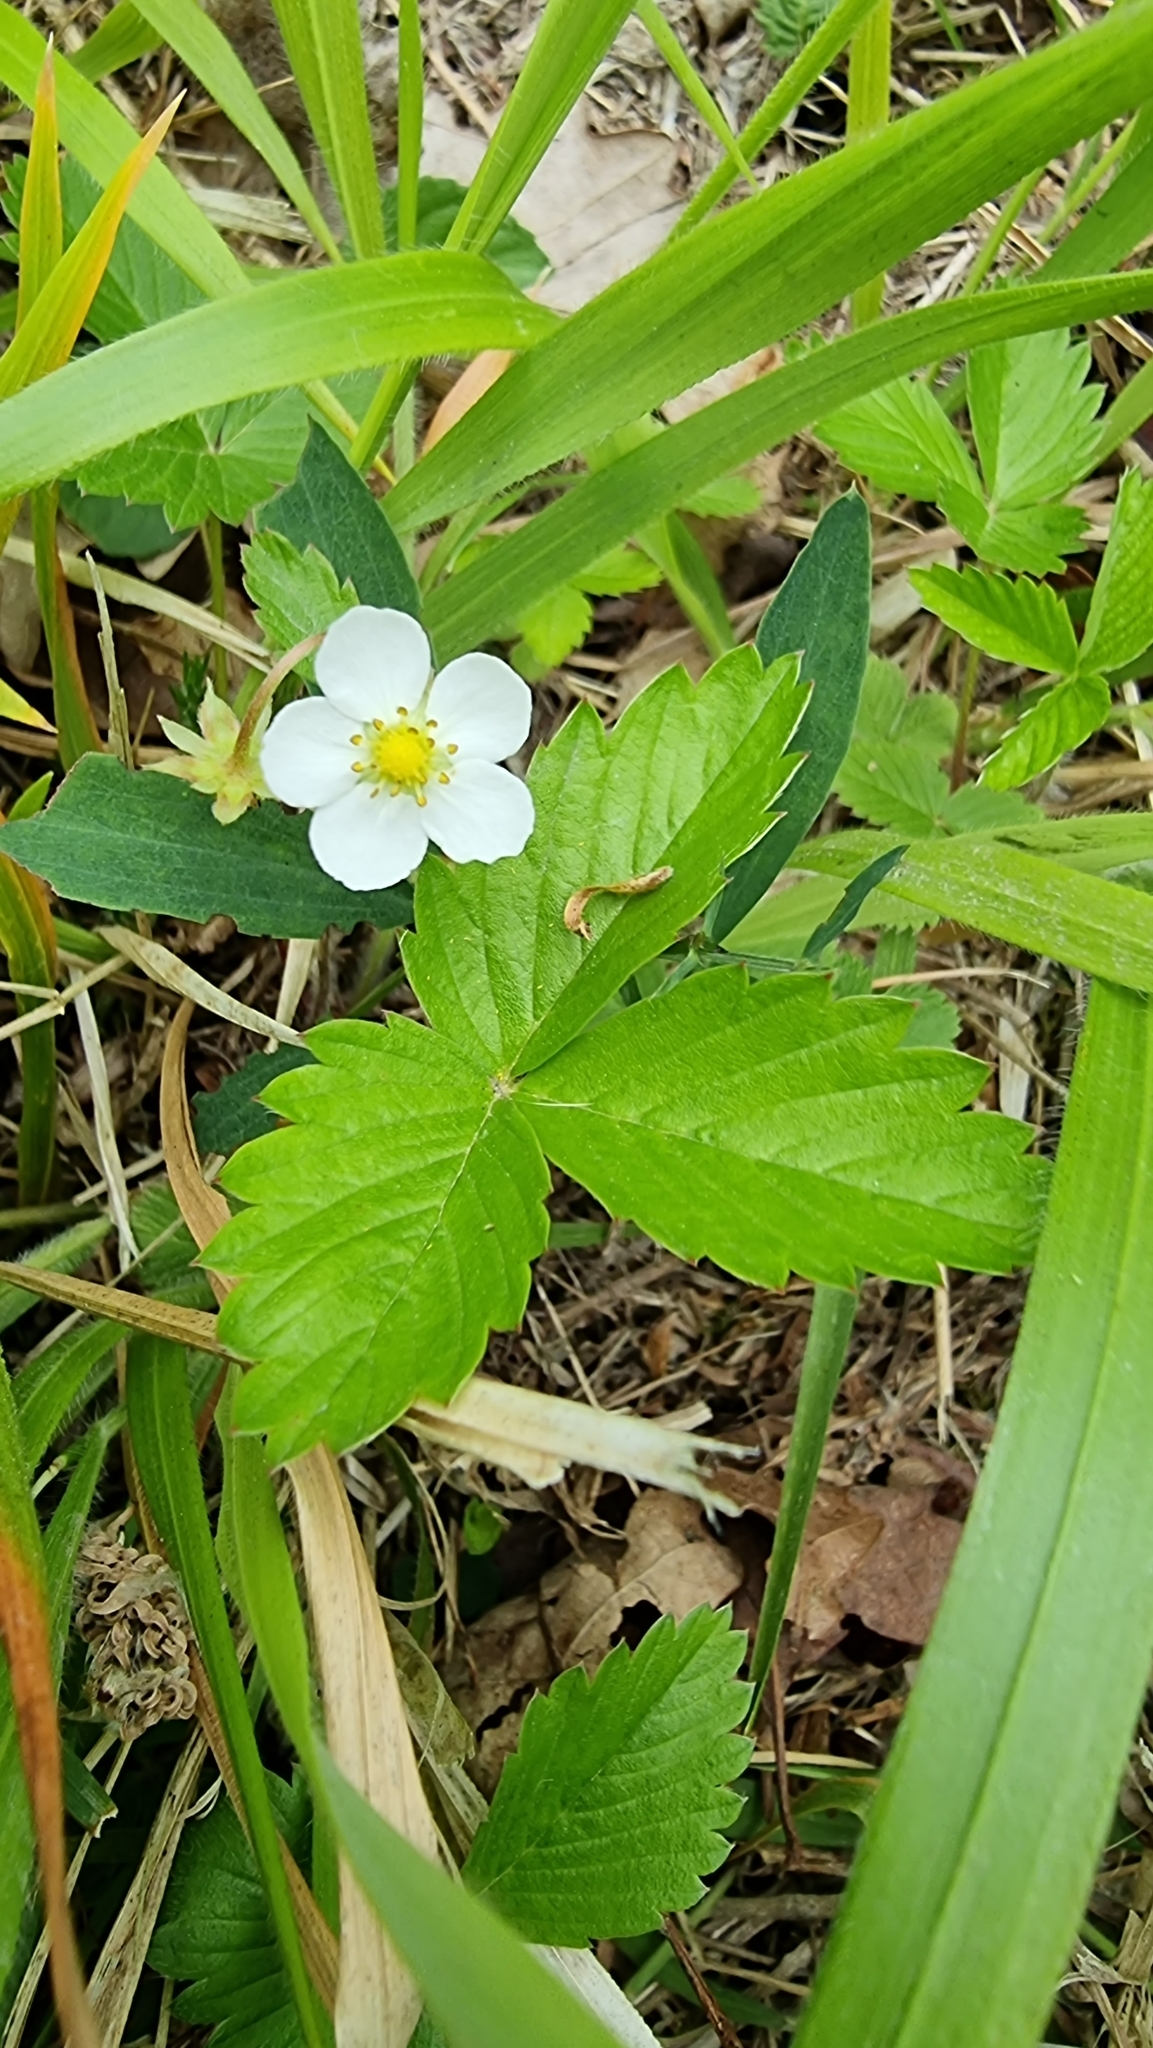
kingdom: Plantae
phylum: Tracheophyta
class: Magnoliopsida
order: Ranunculales
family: Ranunculaceae
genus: Anemone
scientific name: Anemone nemorosa
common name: Wood anemone
